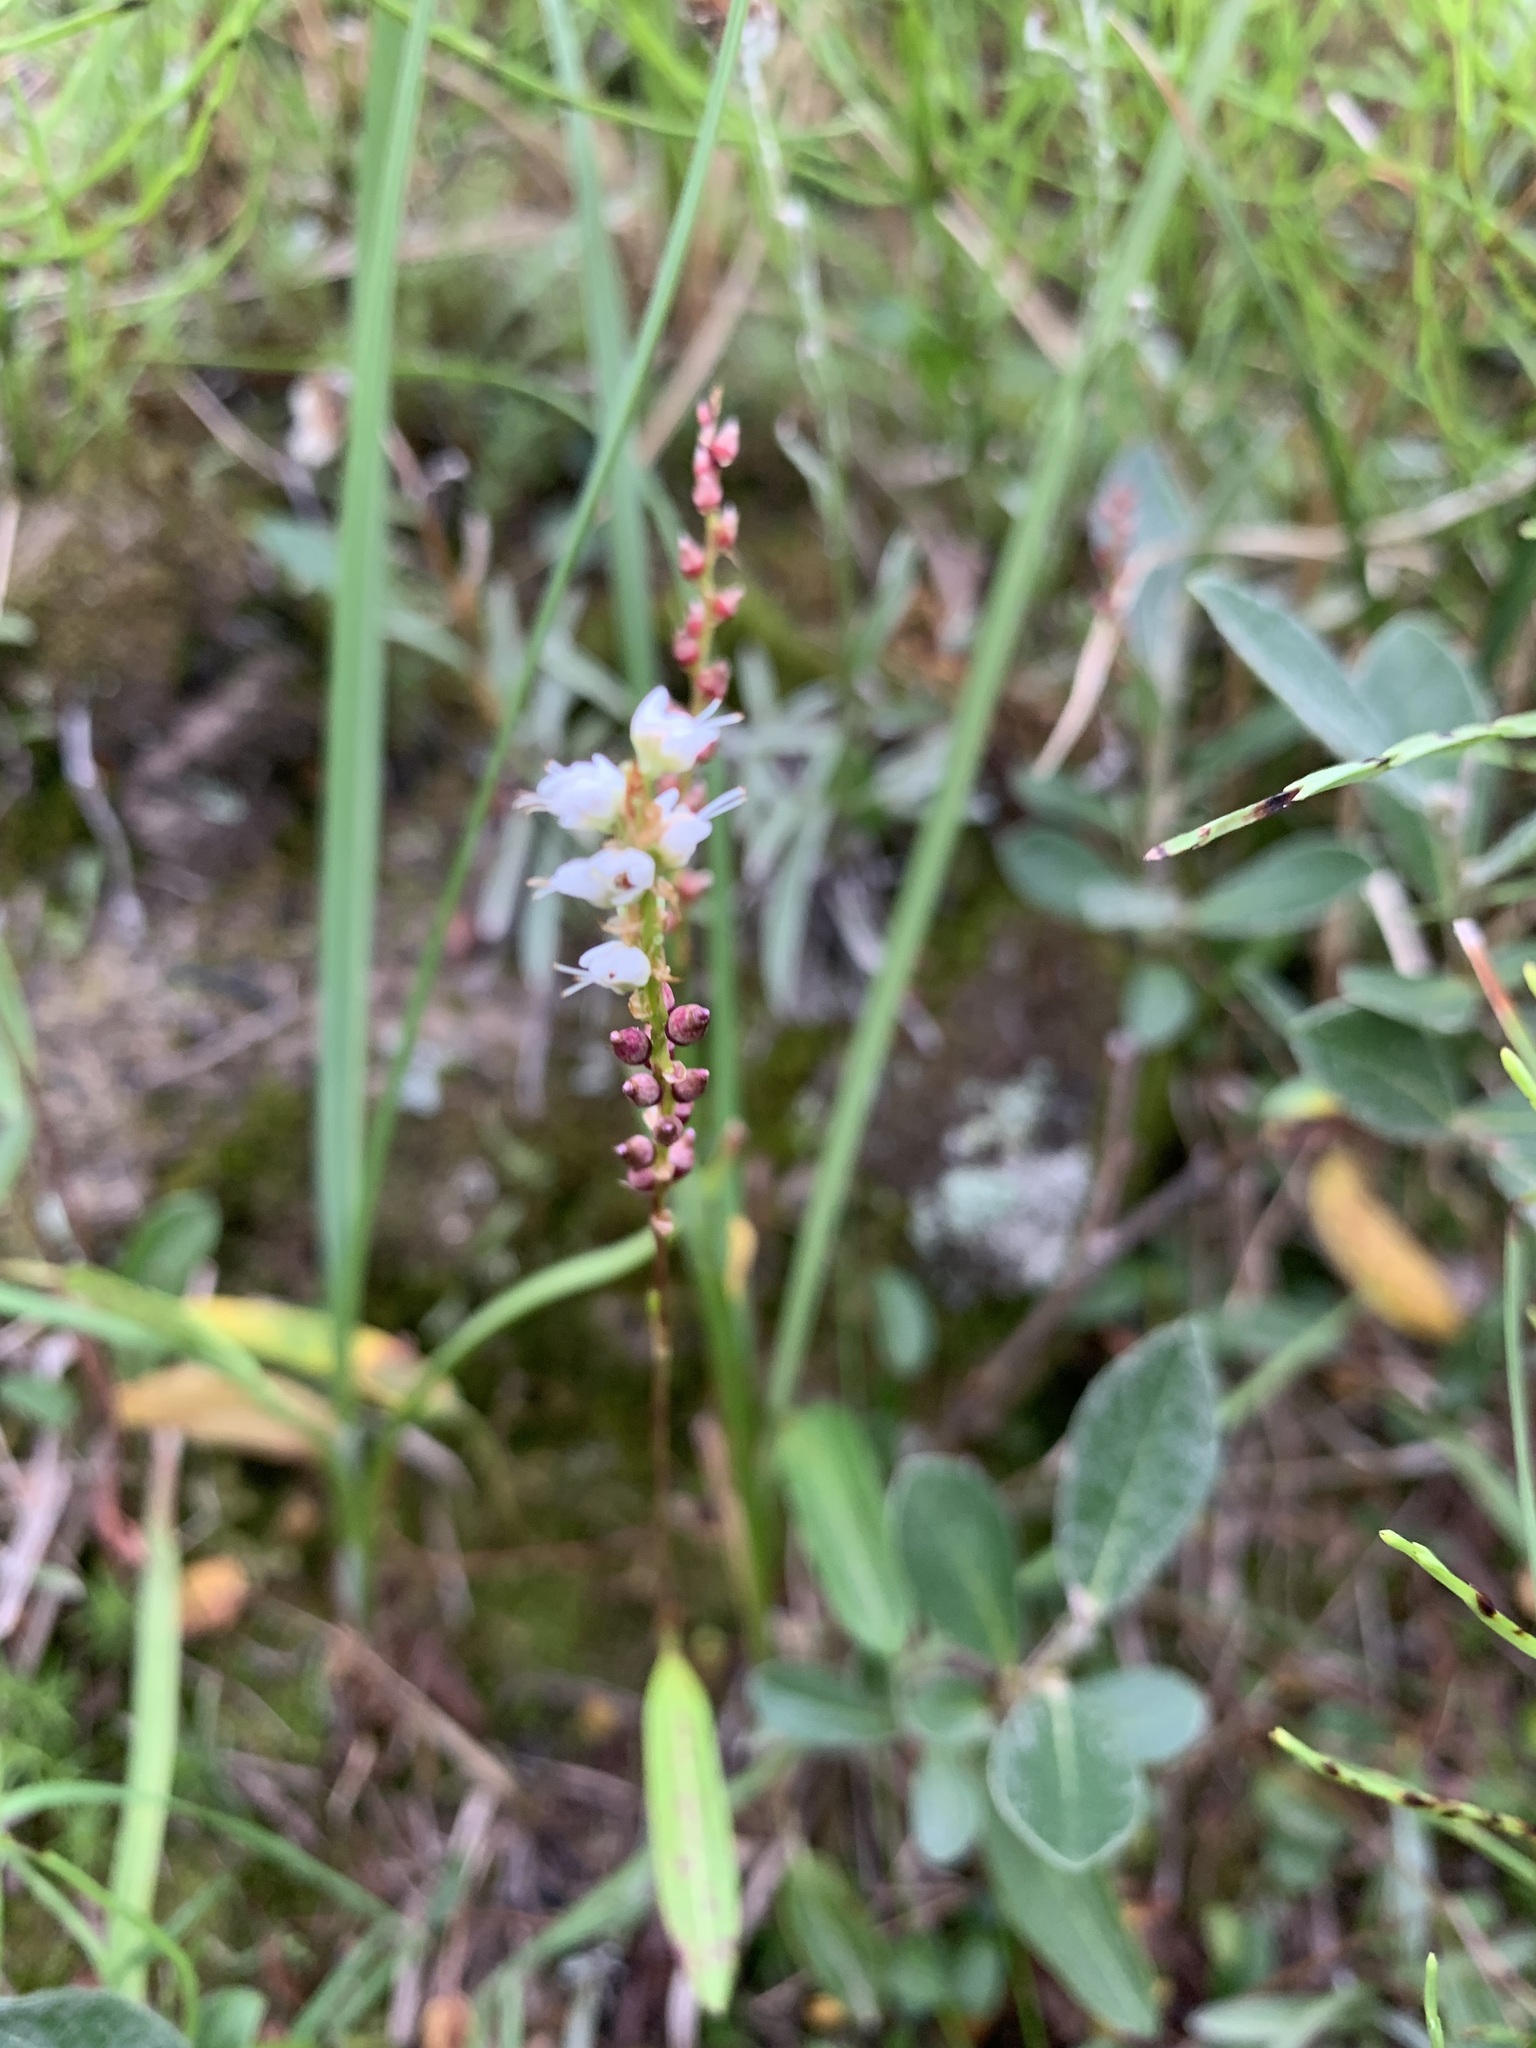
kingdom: Plantae
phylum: Tracheophyta
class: Magnoliopsida
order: Caryophyllales
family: Polygonaceae
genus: Bistorta
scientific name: Bistorta vivipara
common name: Alpine bistort
